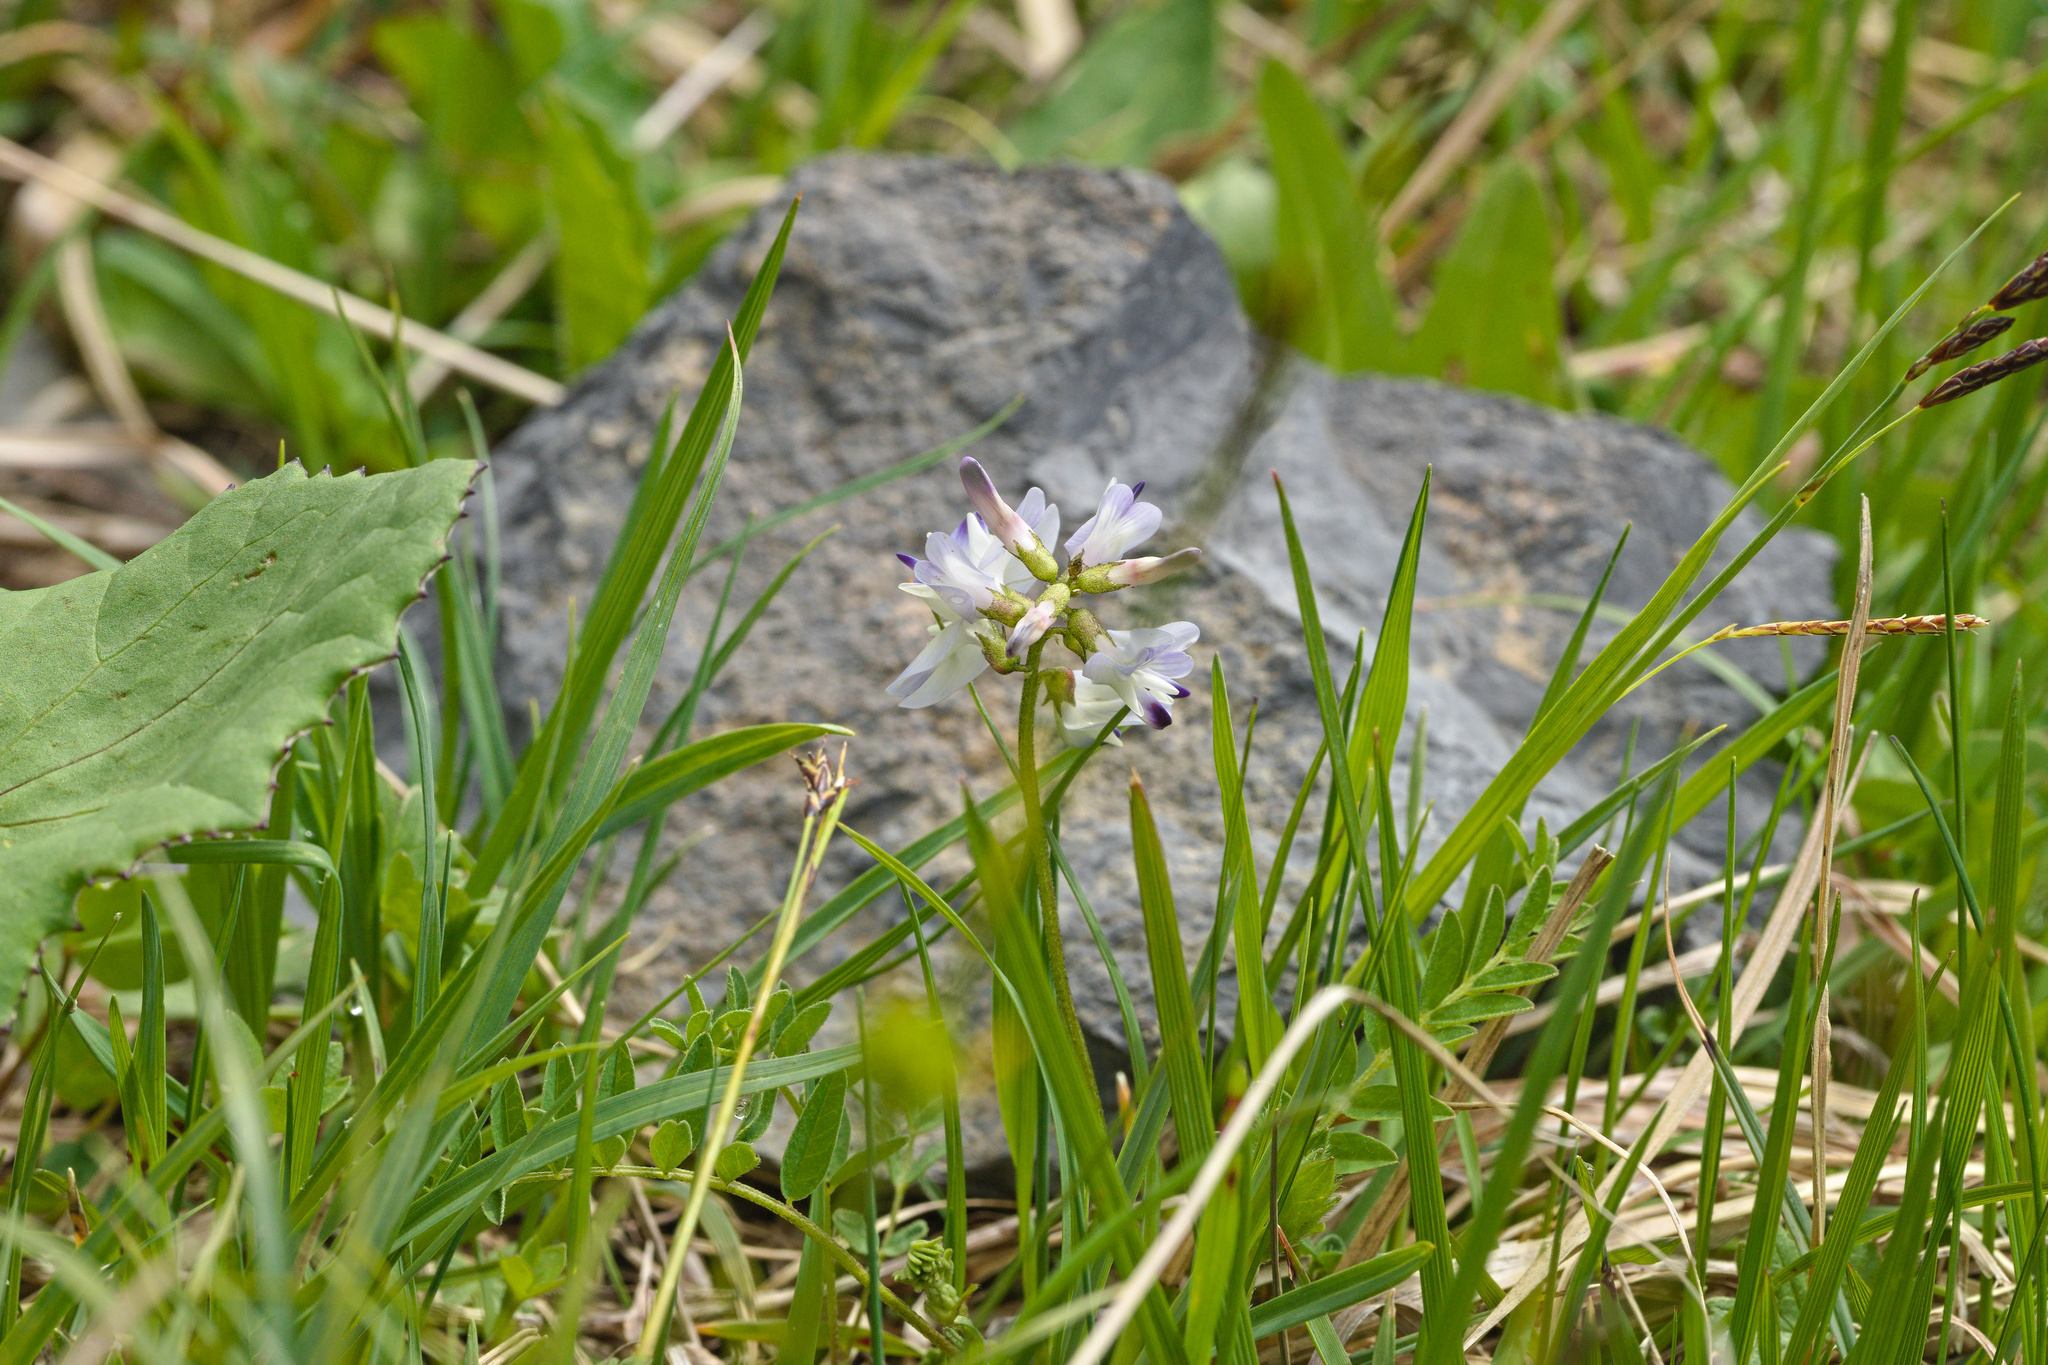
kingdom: Plantae
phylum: Tracheophyta
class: Magnoliopsida
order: Fabales
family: Fabaceae
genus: Astragalus
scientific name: Astragalus alpinus
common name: Alpine milk-vetch
